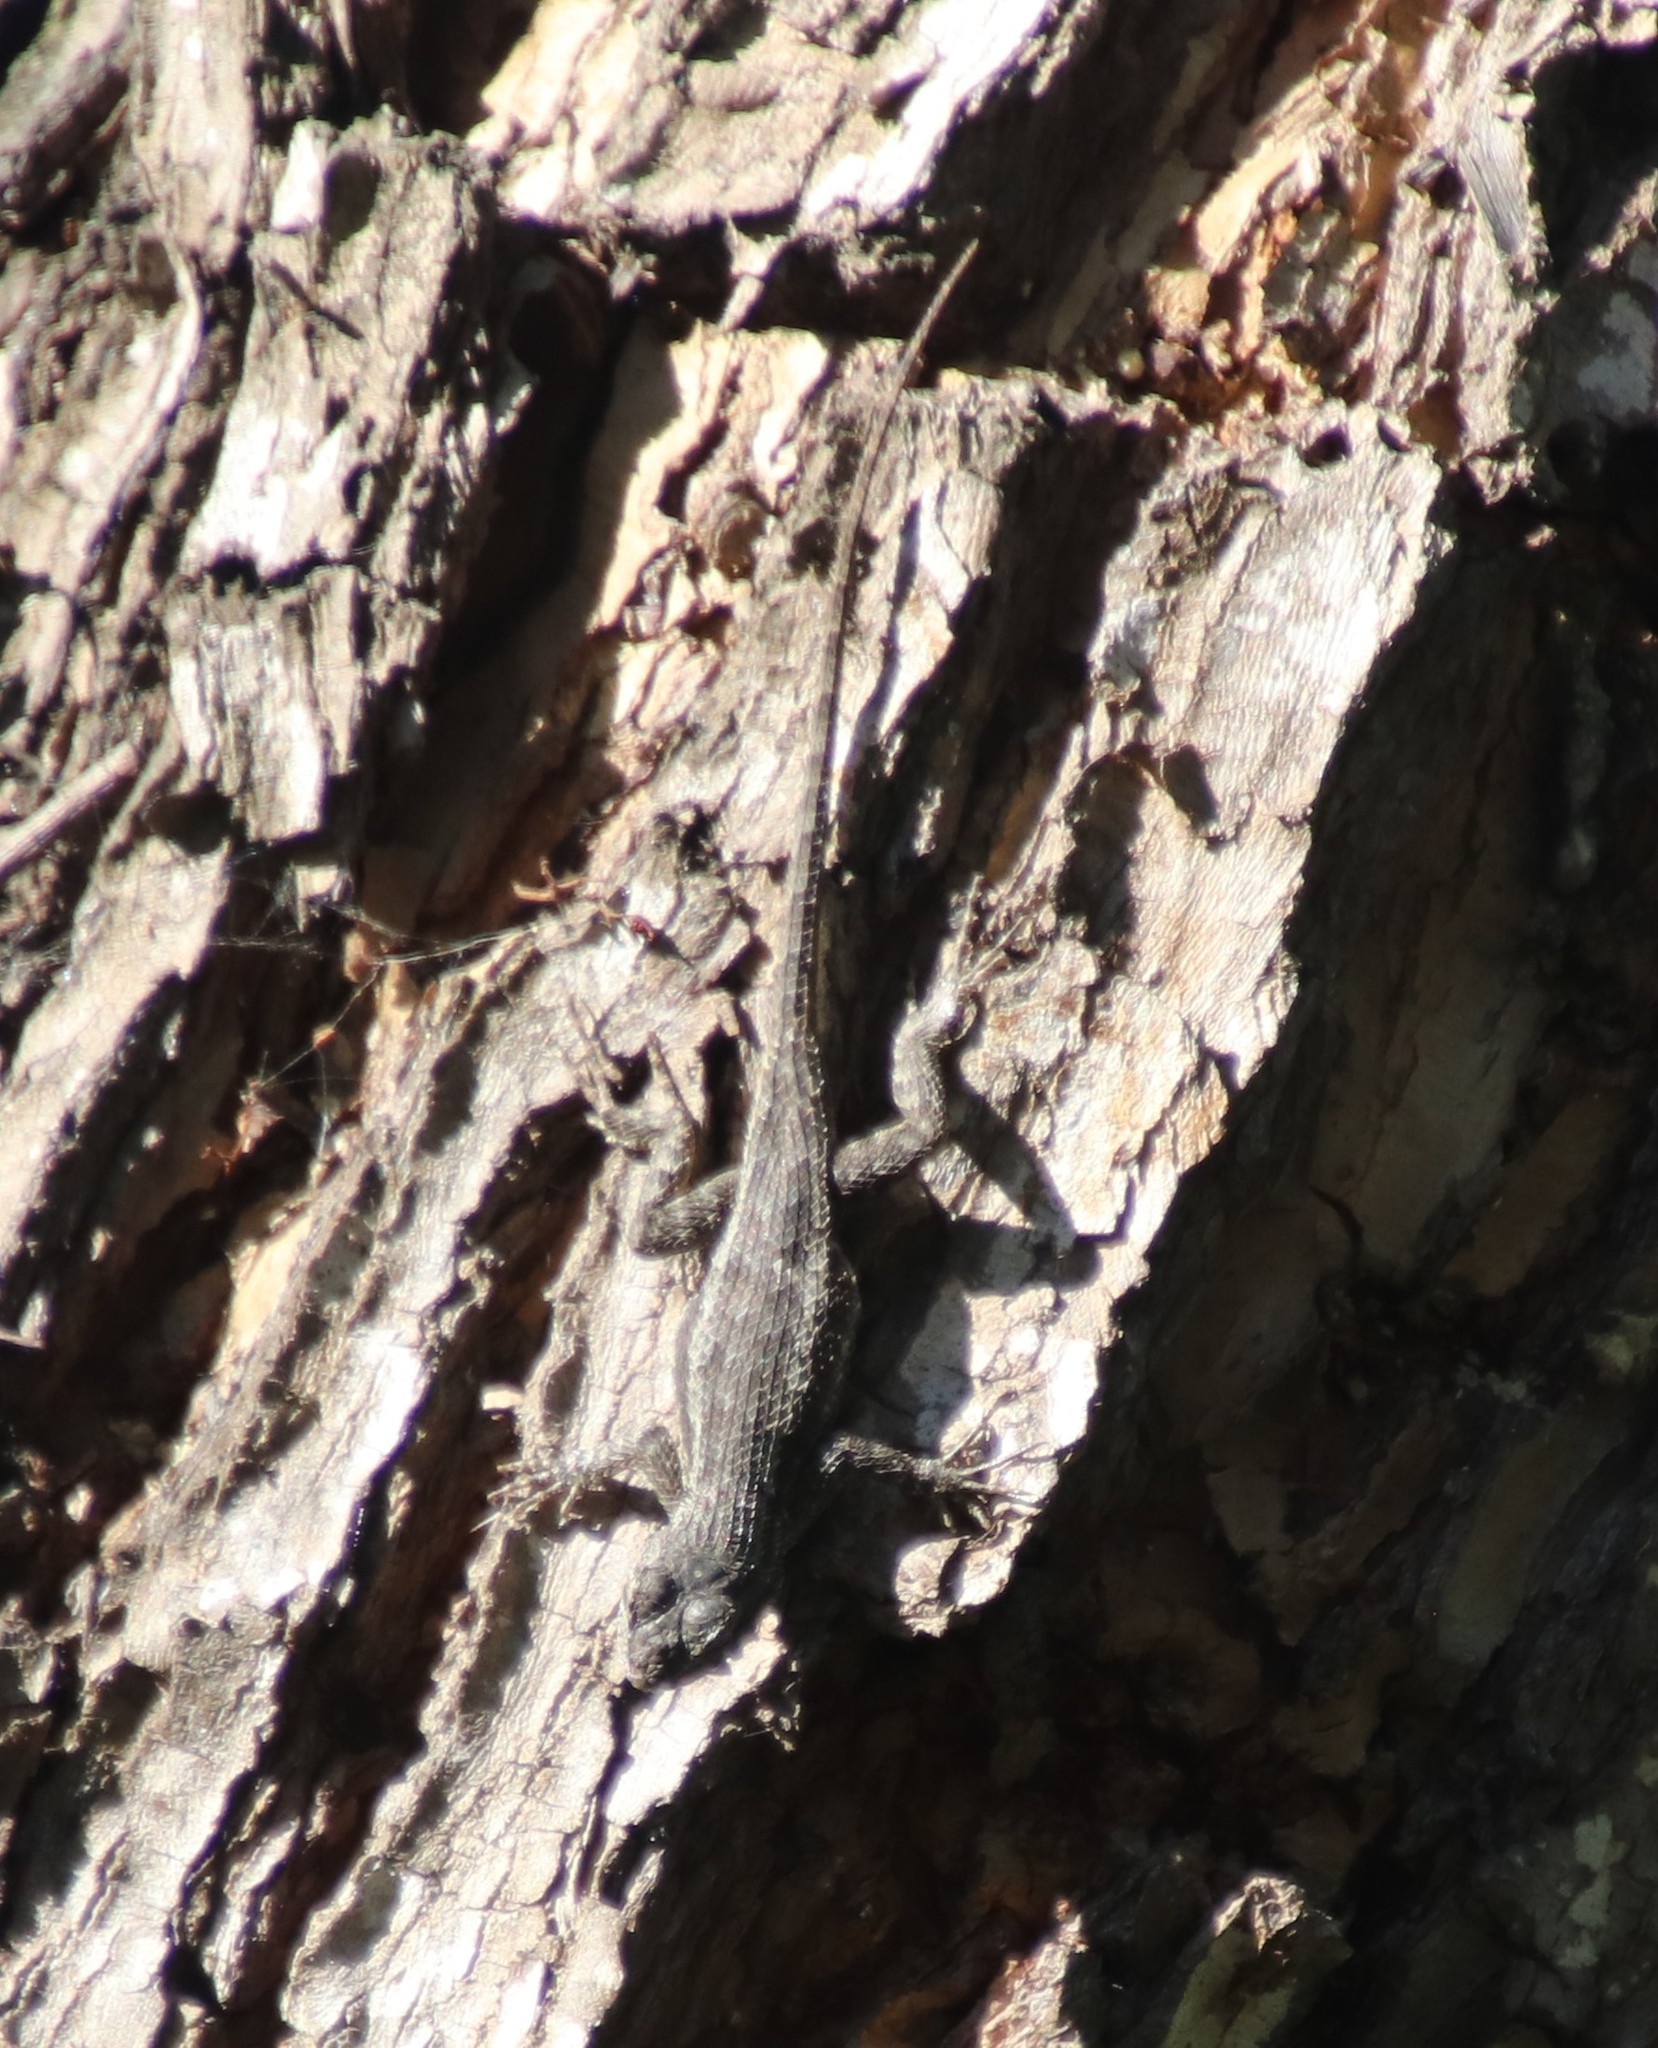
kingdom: Animalia
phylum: Chordata
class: Squamata
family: Phrynosomatidae
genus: Sceloporus
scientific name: Sceloporus occidentalis
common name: Western fence lizard
